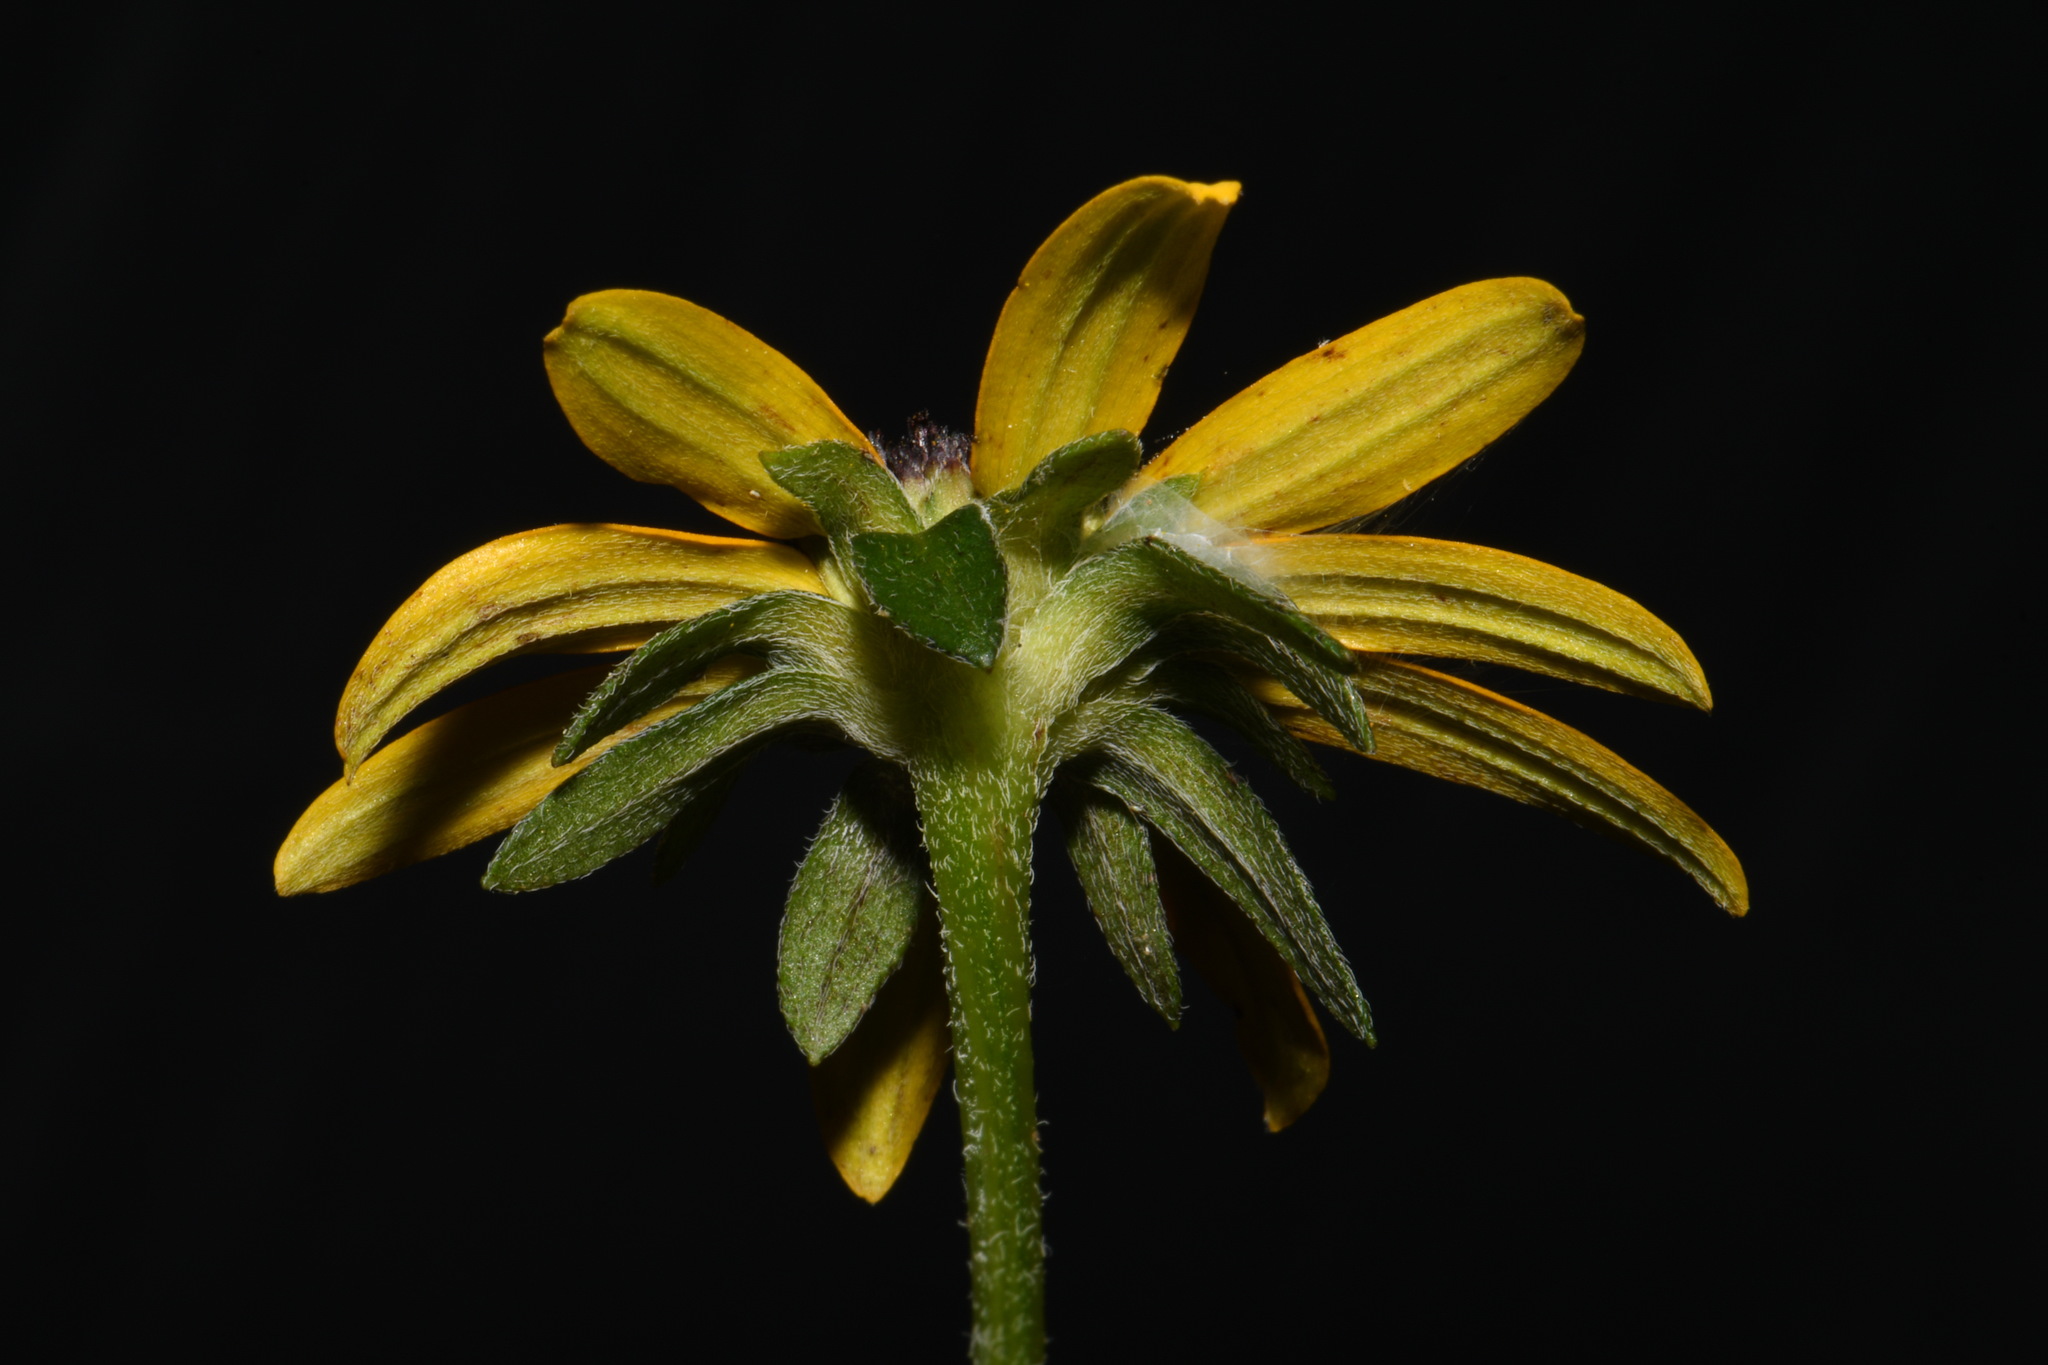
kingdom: Plantae
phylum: Tracheophyta
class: Magnoliopsida
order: Asterales
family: Asteraceae
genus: Rudbeckia
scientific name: Rudbeckia fulgida
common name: Perennial coneflower
